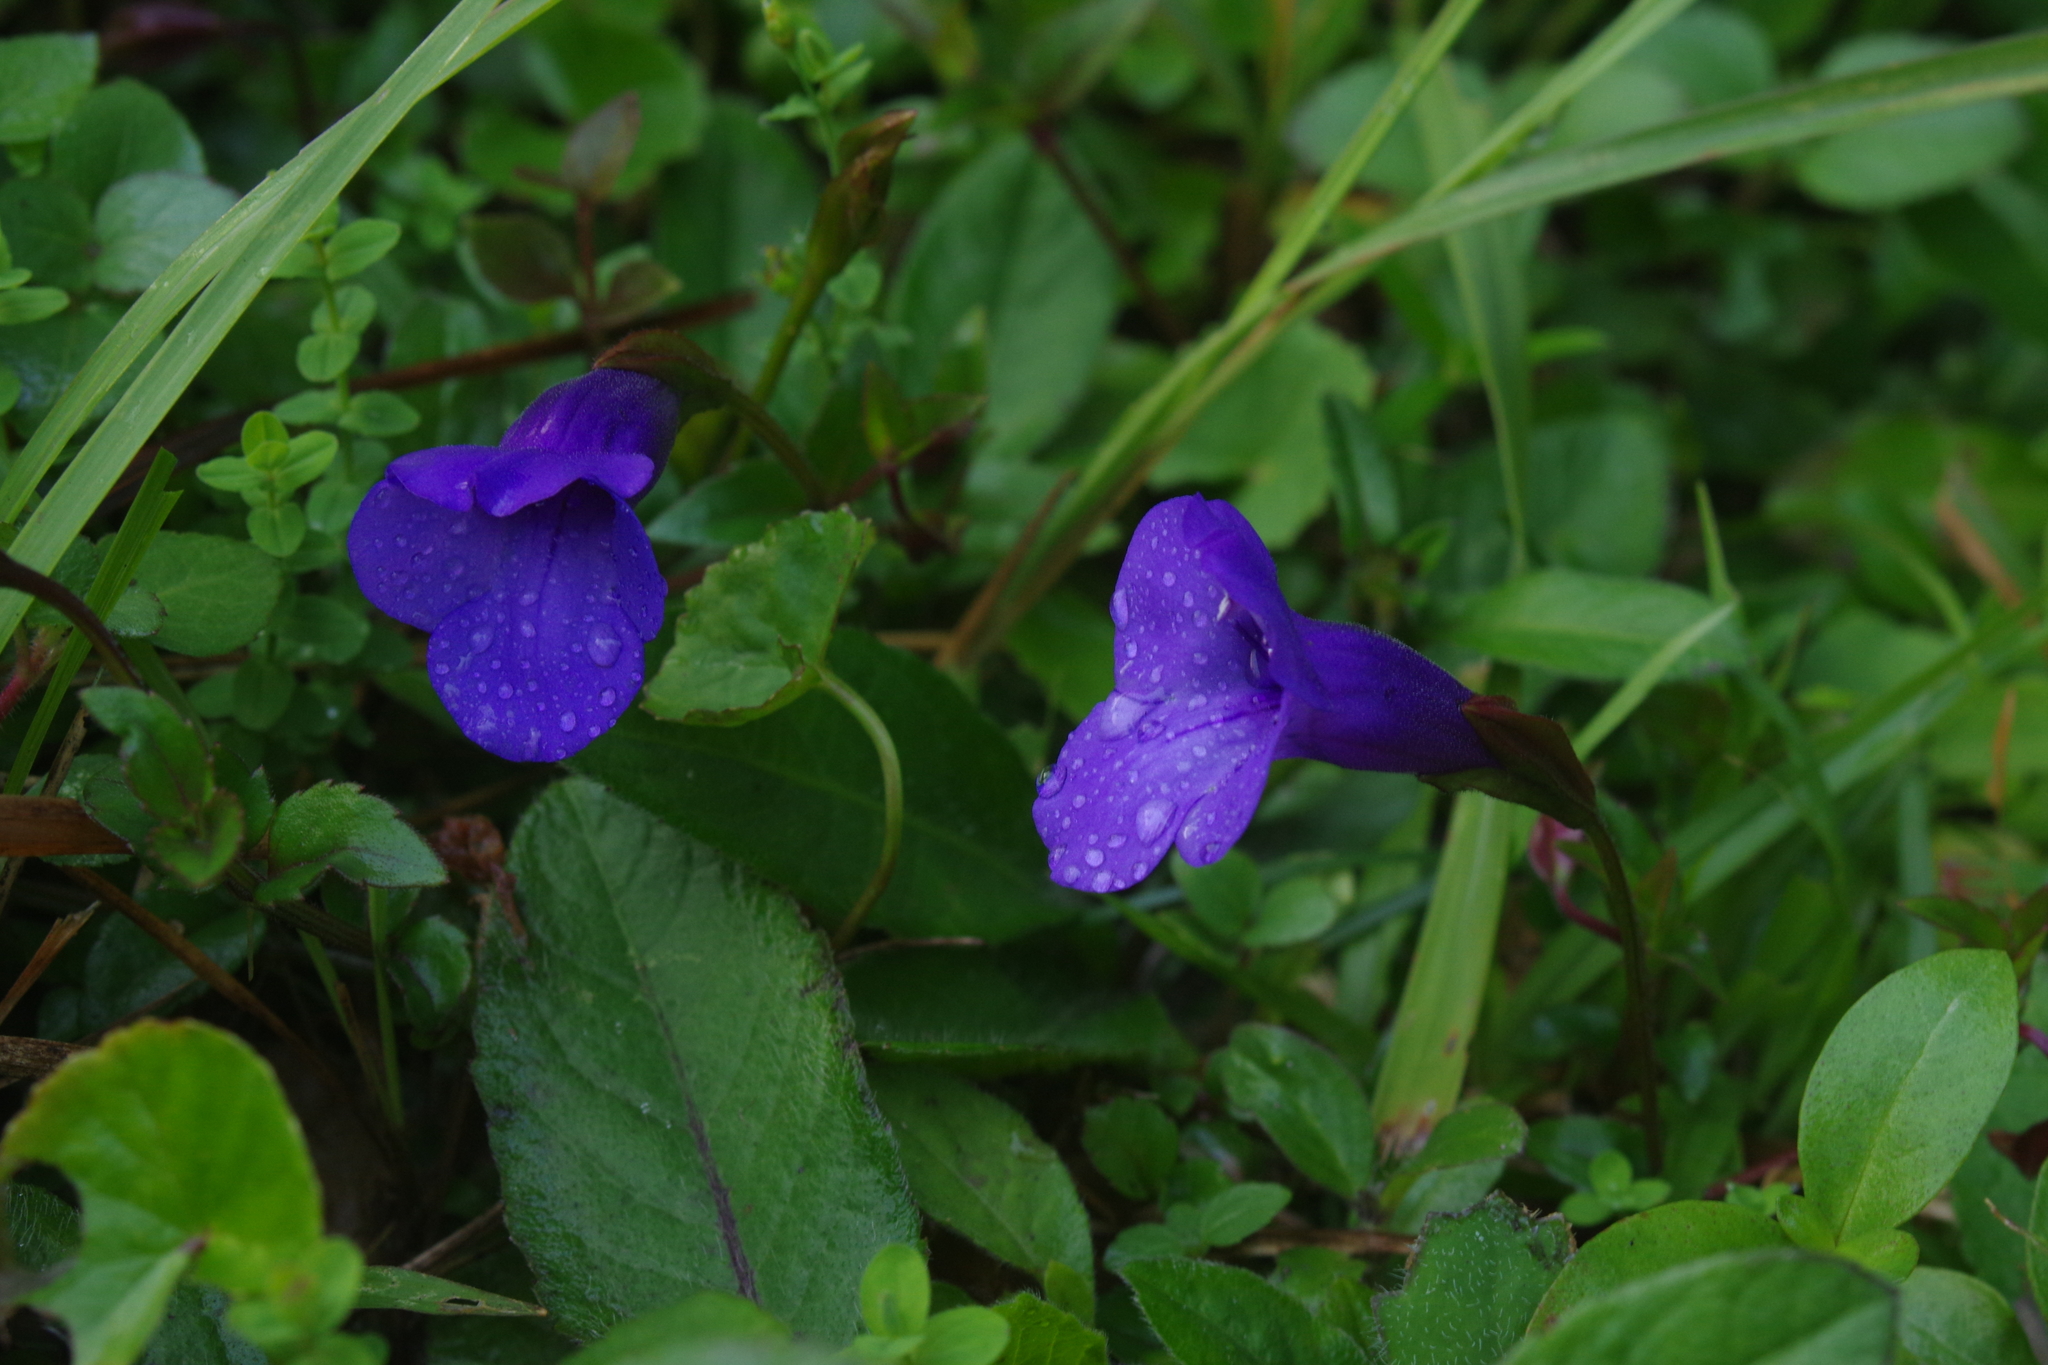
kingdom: Plantae
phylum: Tracheophyta
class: Magnoliopsida
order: Lamiales
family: Linderniaceae
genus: Torenia
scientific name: Torenia concolor
